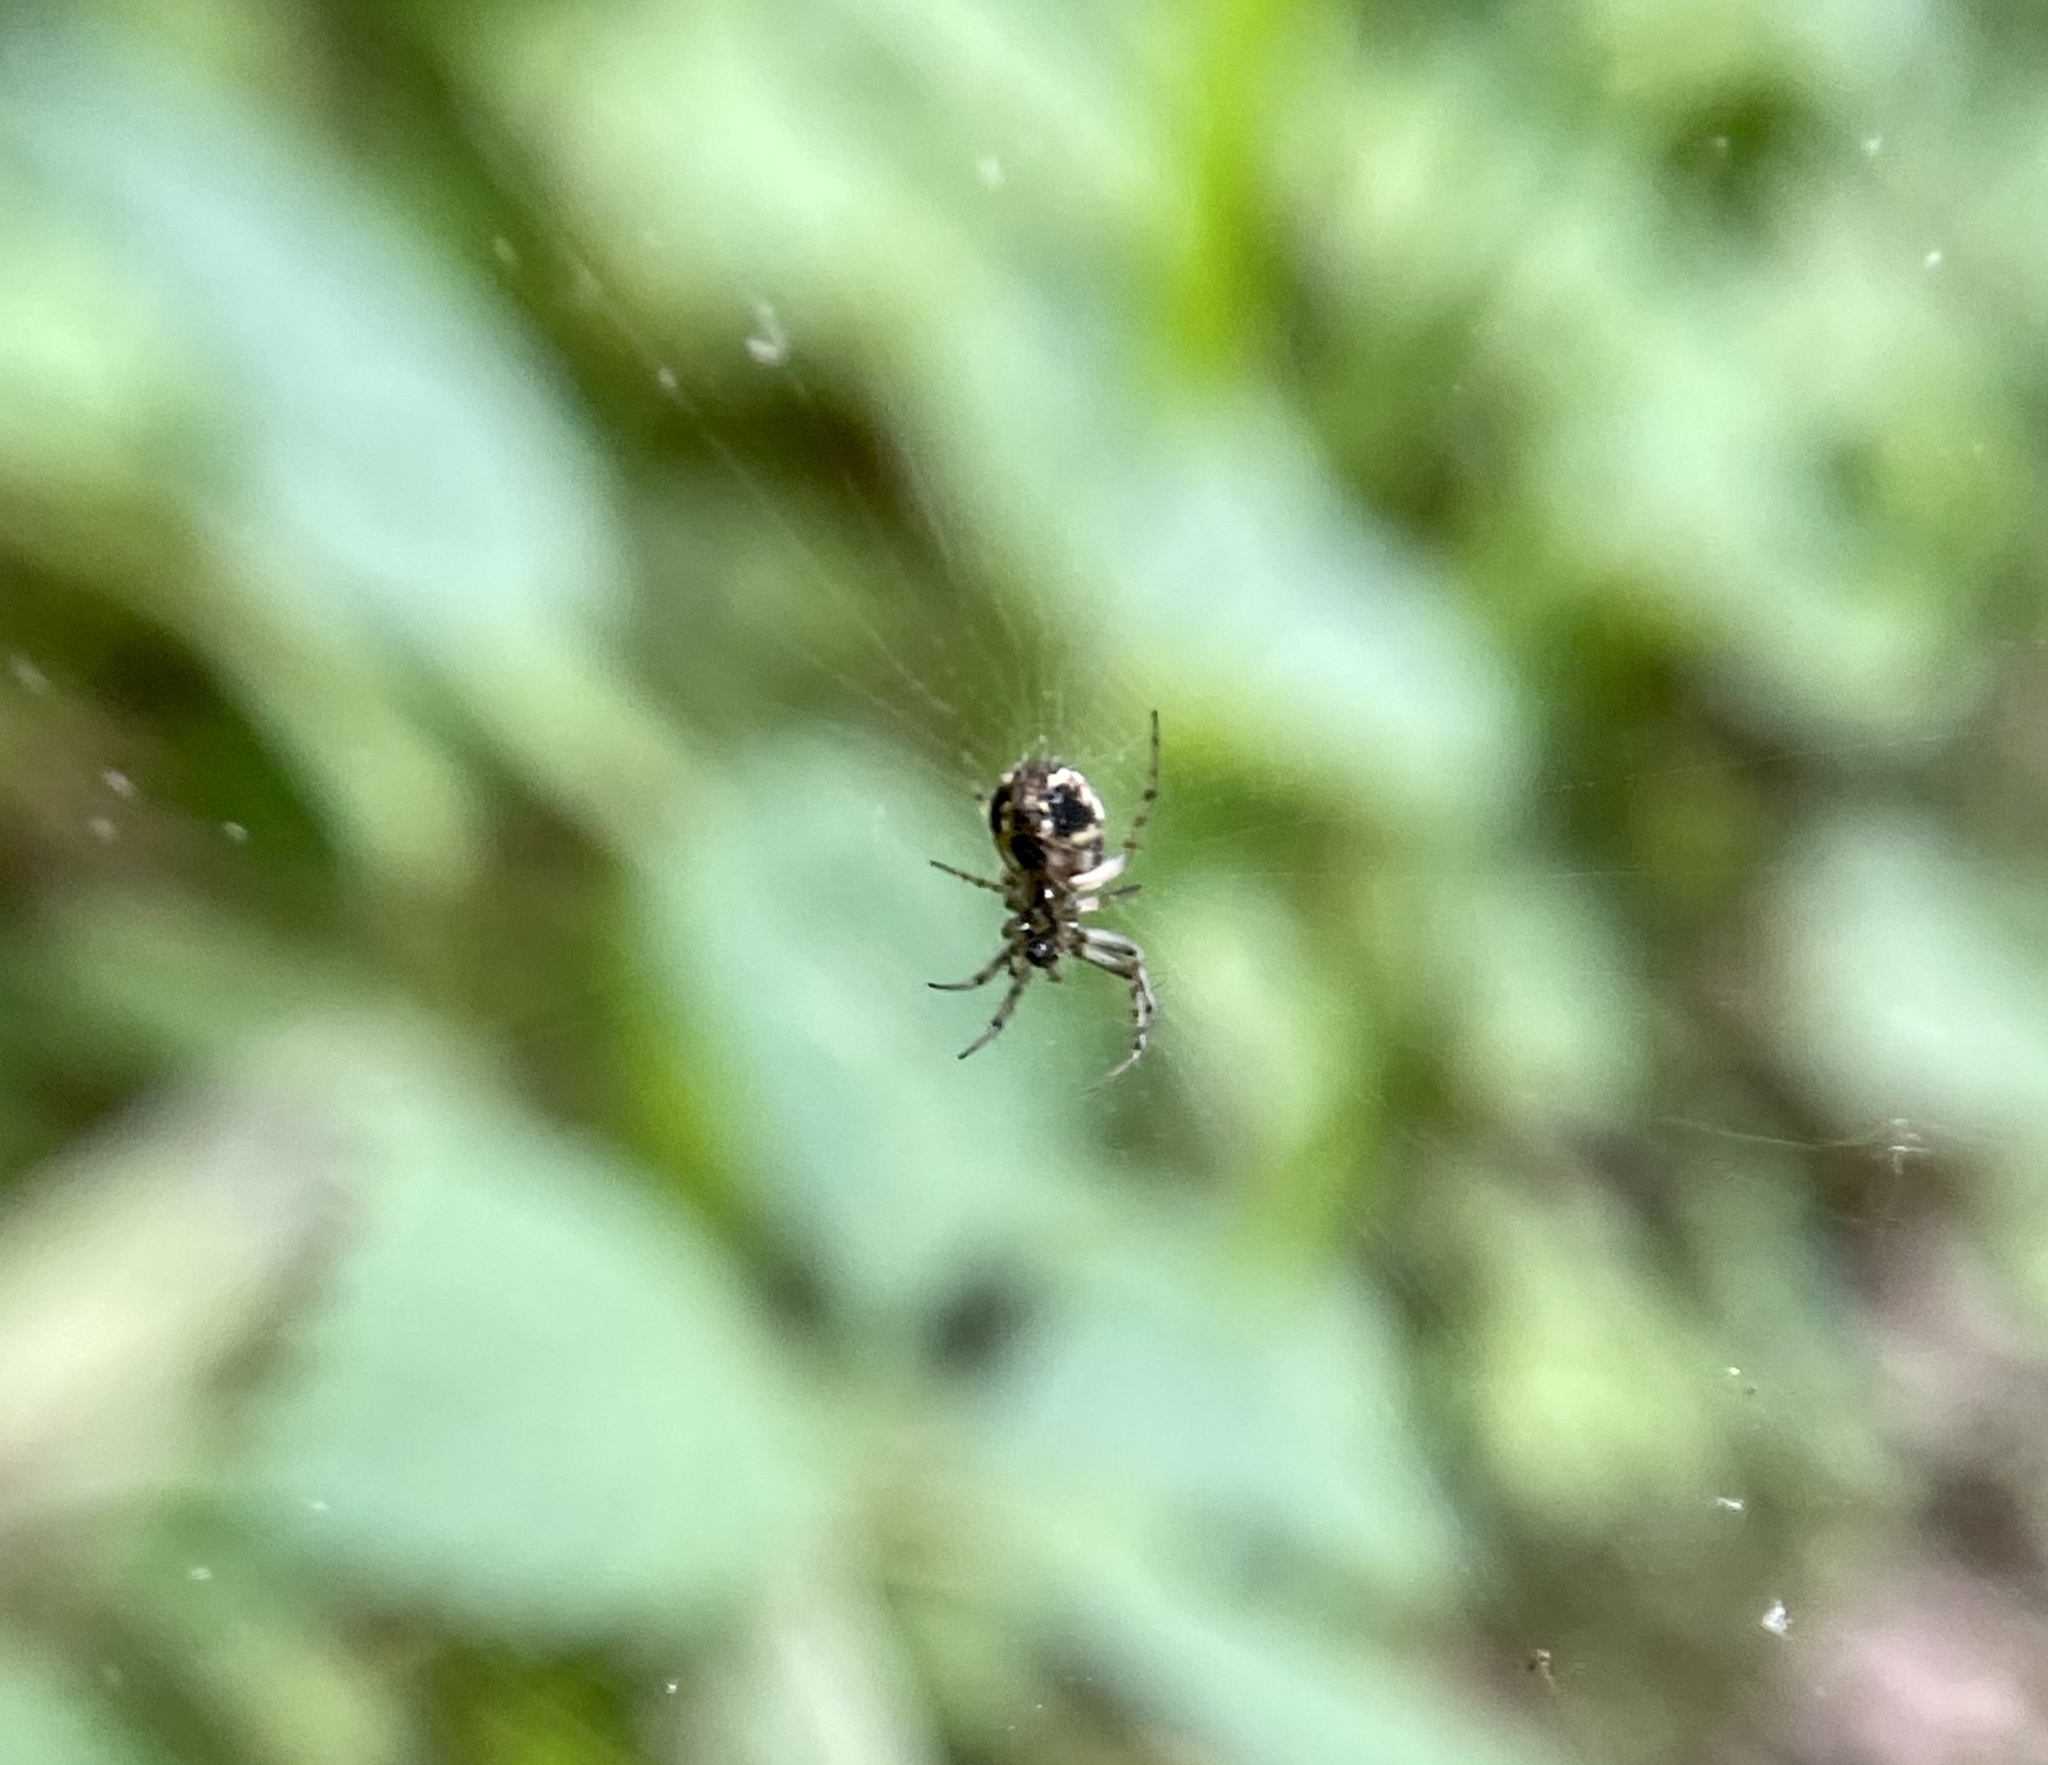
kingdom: Animalia
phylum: Arthropoda
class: Arachnida
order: Araneae
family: Araneidae
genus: Mangora
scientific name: Mangora placida
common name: Tuft-legged orbweaver
